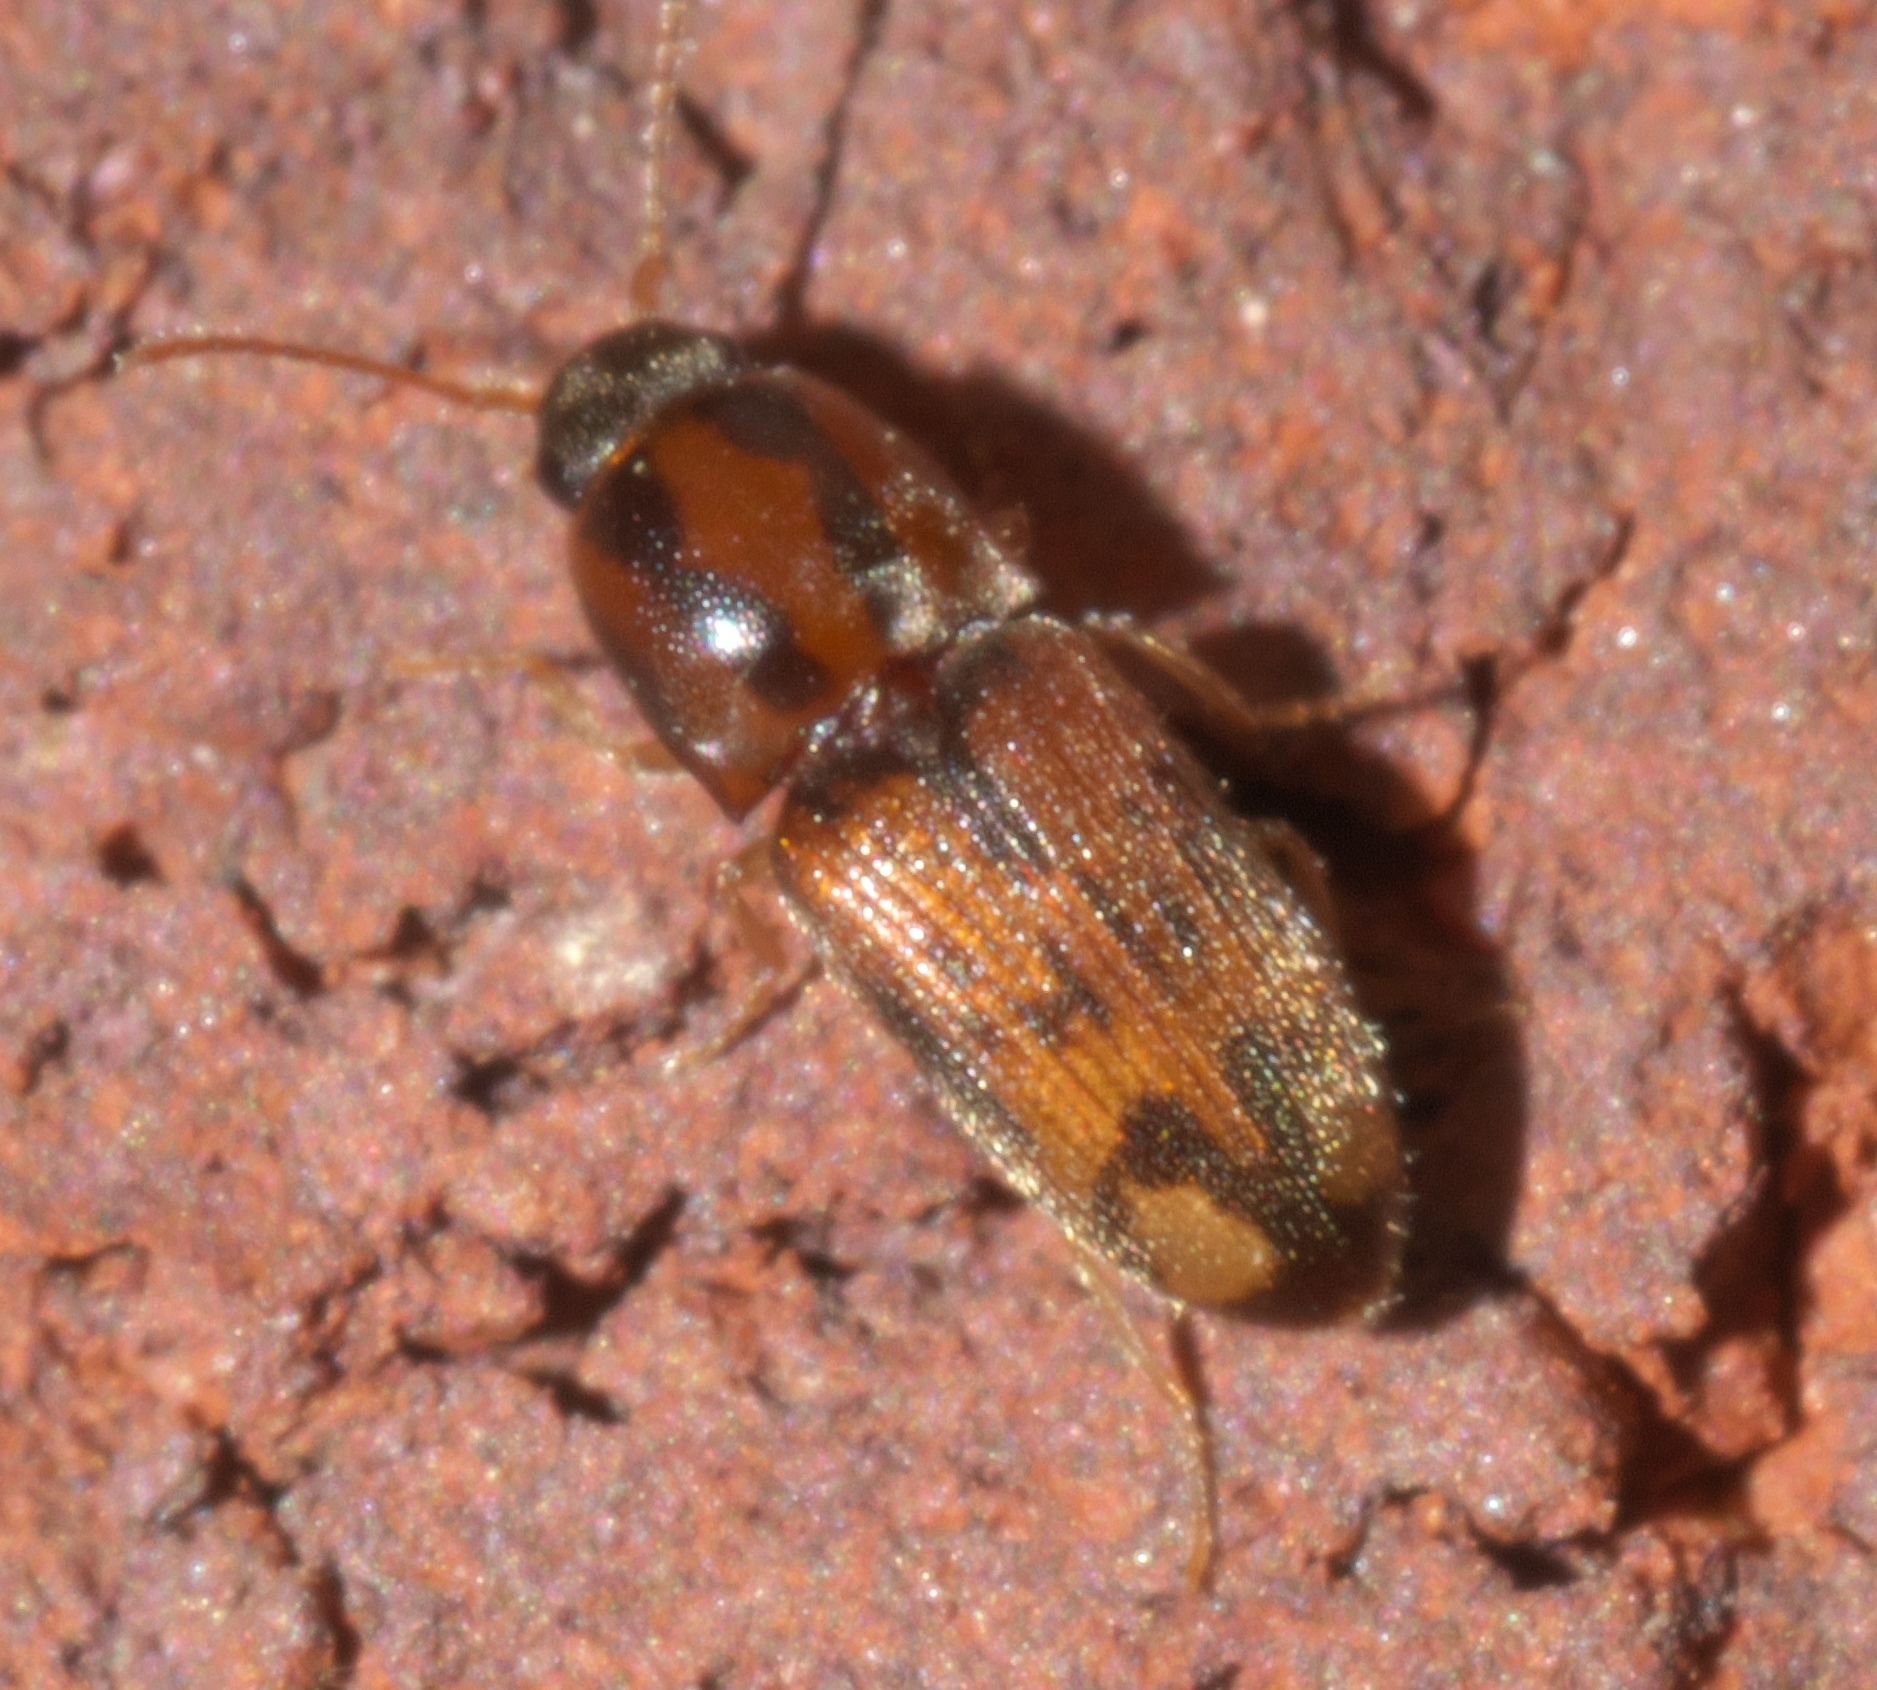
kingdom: Animalia
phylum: Arthropoda
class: Insecta
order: Coleoptera
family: Elateridae
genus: Monocrepidius
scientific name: Monocrepidius bellus
